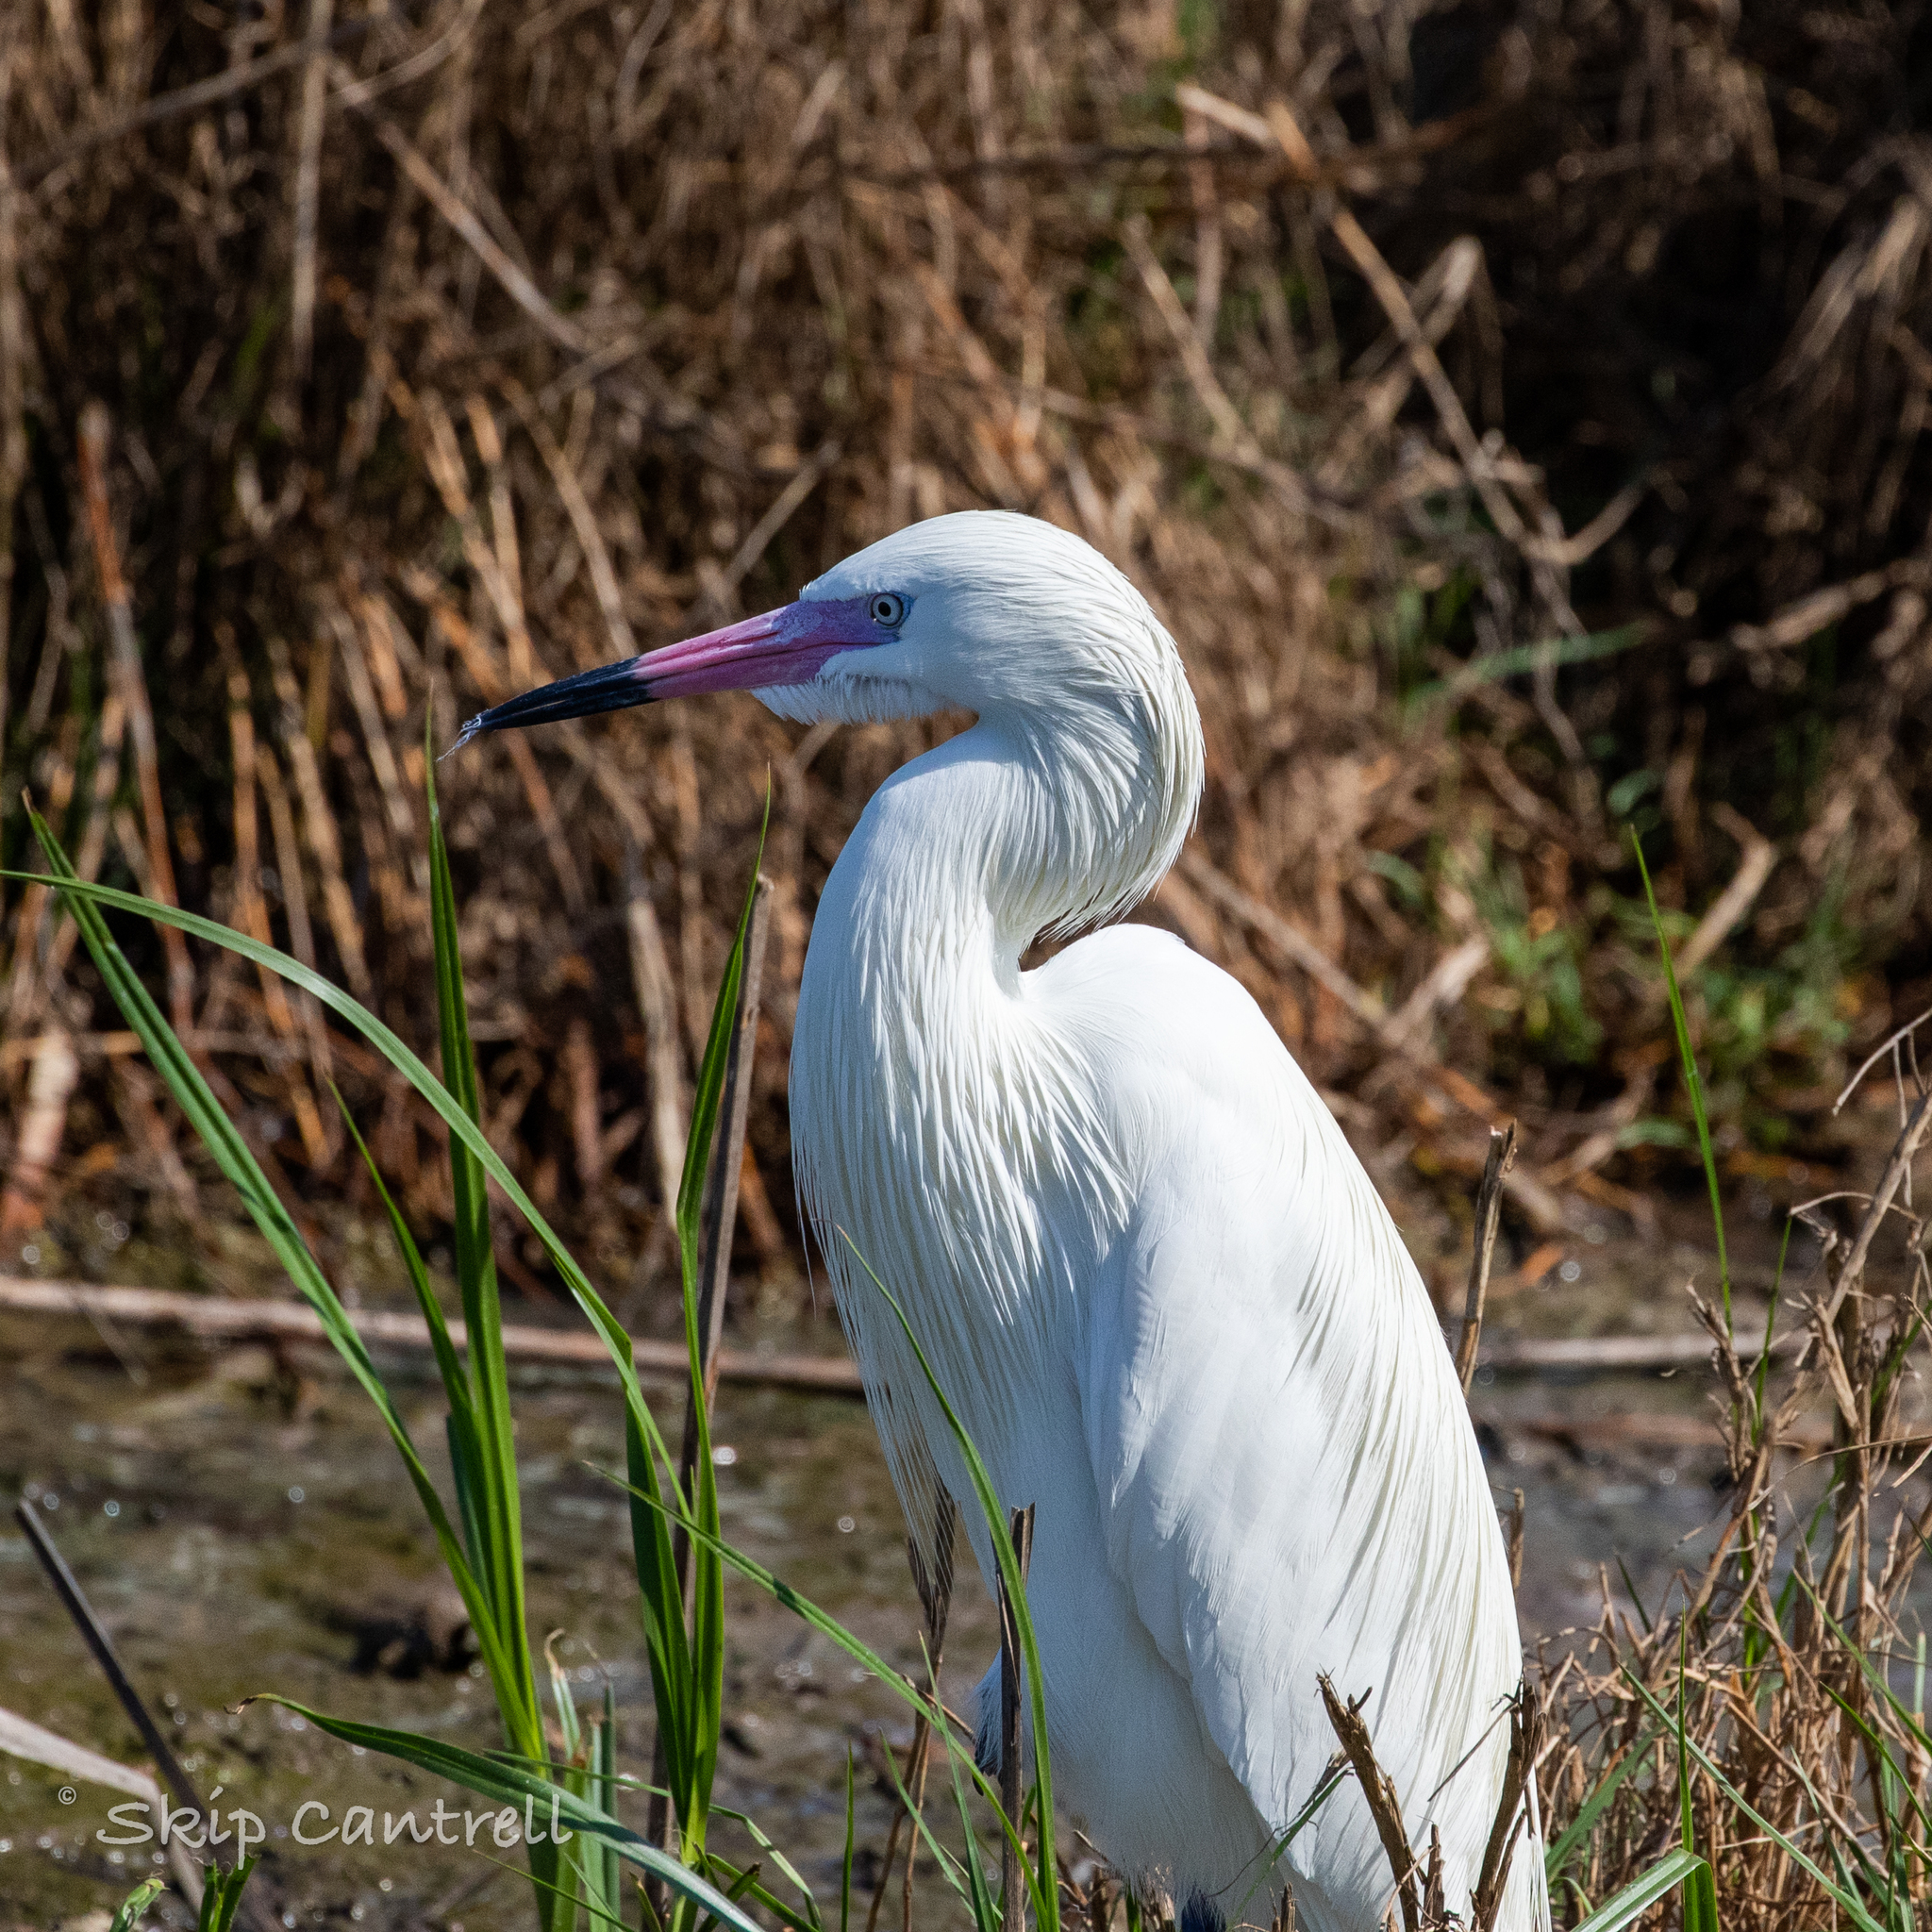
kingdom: Animalia
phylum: Chordata
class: Aves
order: Pelecaniformes
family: Ardeidae
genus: Egretta
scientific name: Egretta rufescens
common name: Reddish egret
